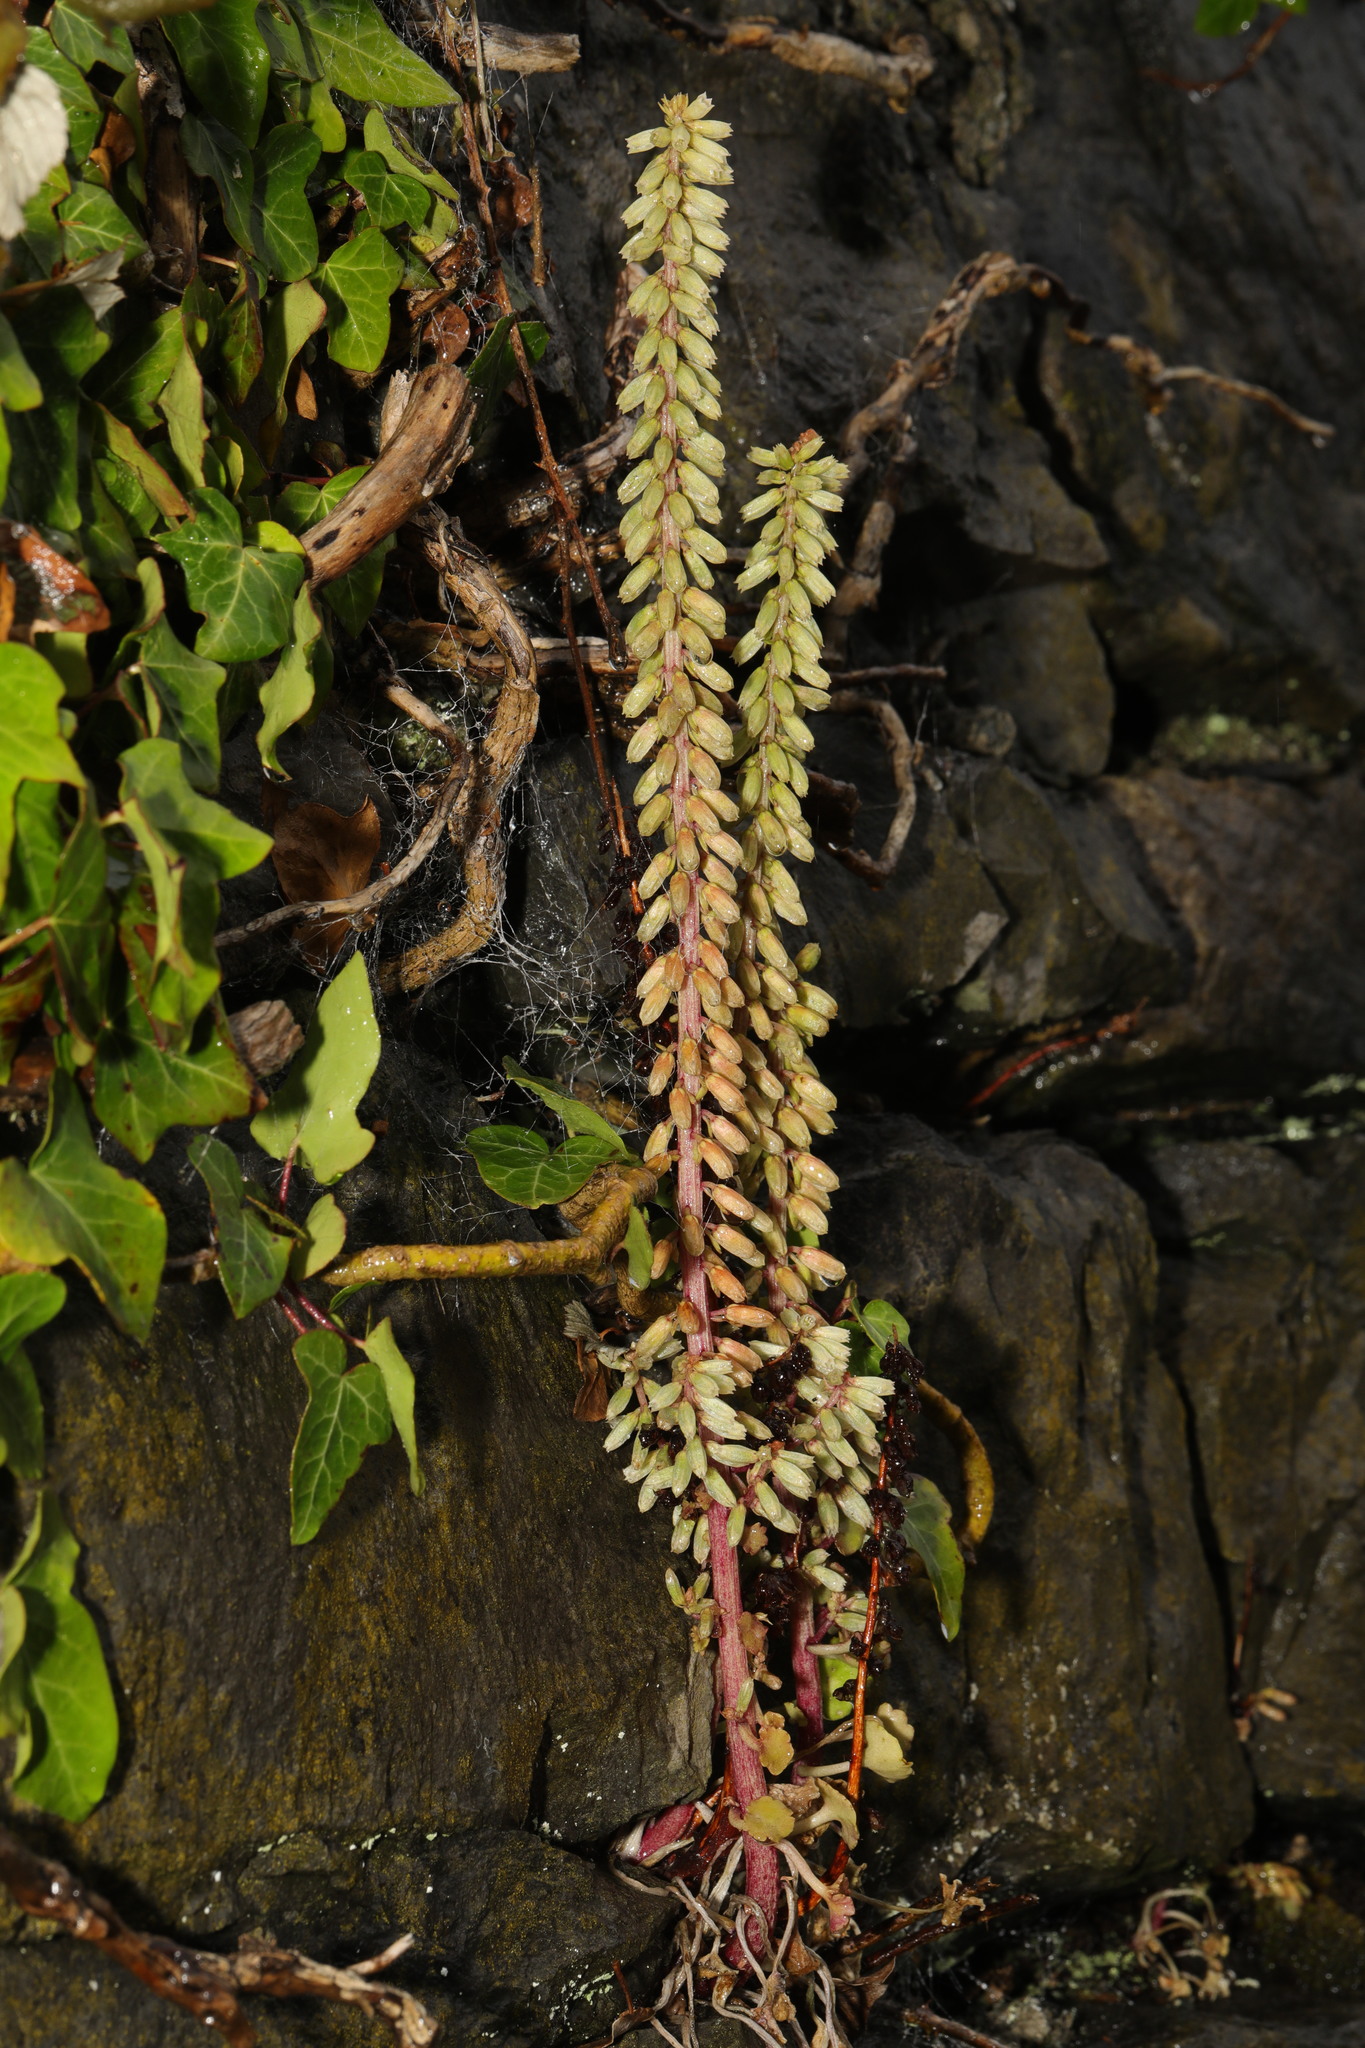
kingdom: Plantae
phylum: Tracheophyta
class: Magnoliopsida
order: Saxifragales
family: Crassulaceae
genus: Umbilicus
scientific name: Umbilicus rupestris
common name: Navelwort
